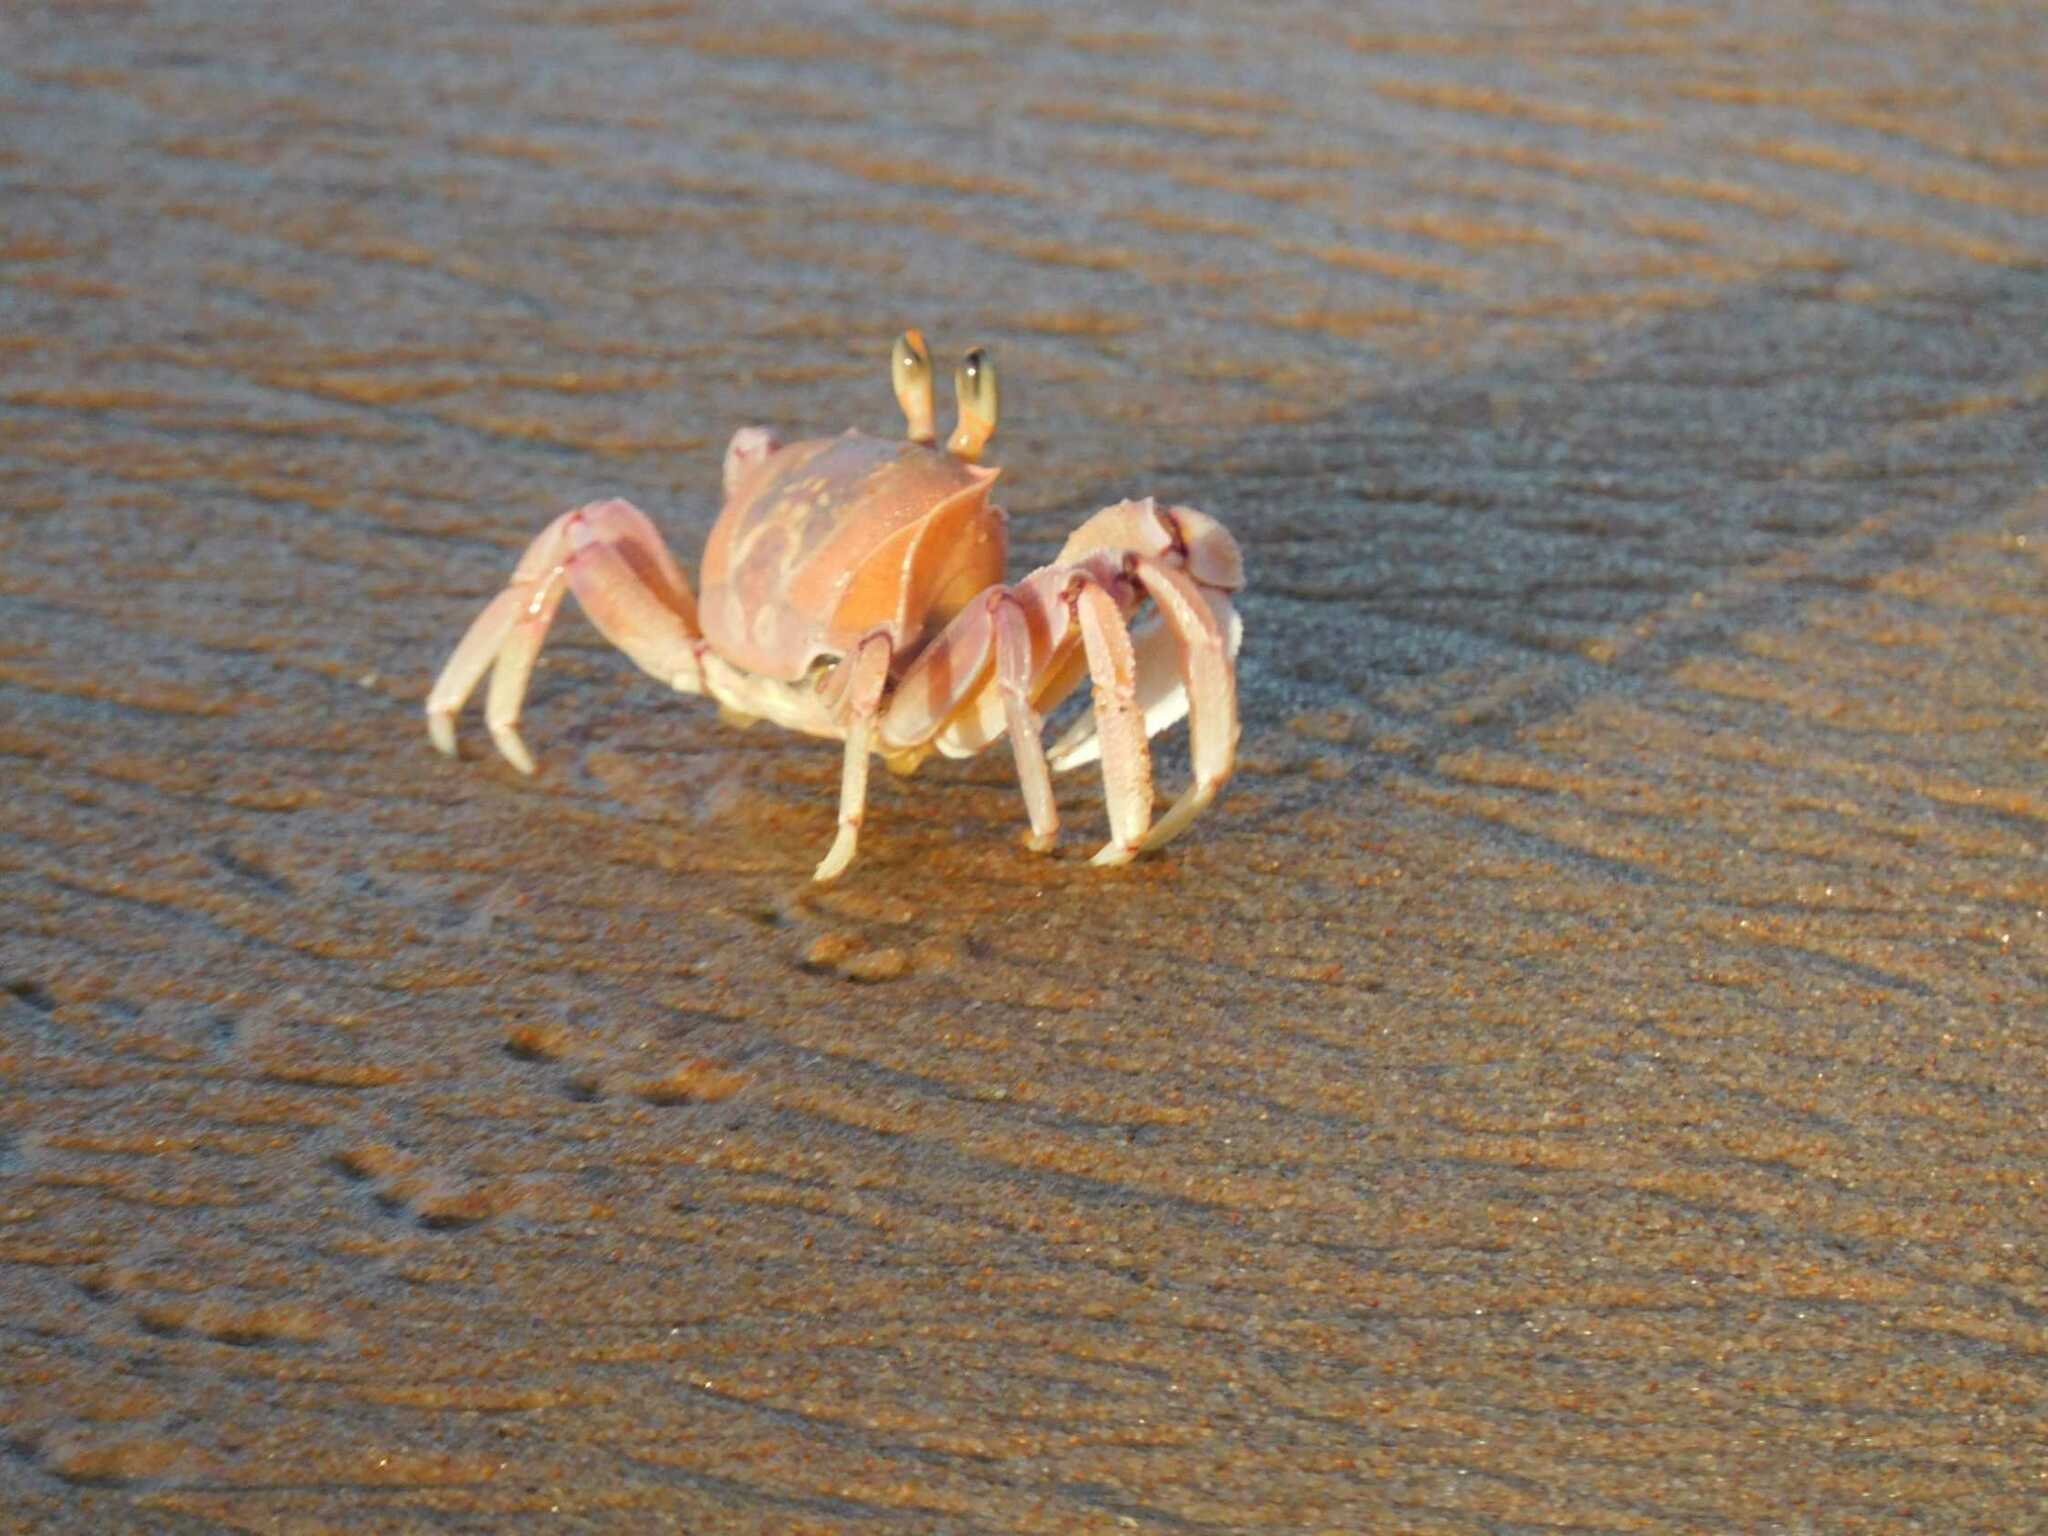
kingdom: Animalia
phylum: Arthropoda
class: Malacostraca
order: Decapoda
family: Ocypodidae
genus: Ocypode
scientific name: Ocypode ryderi
